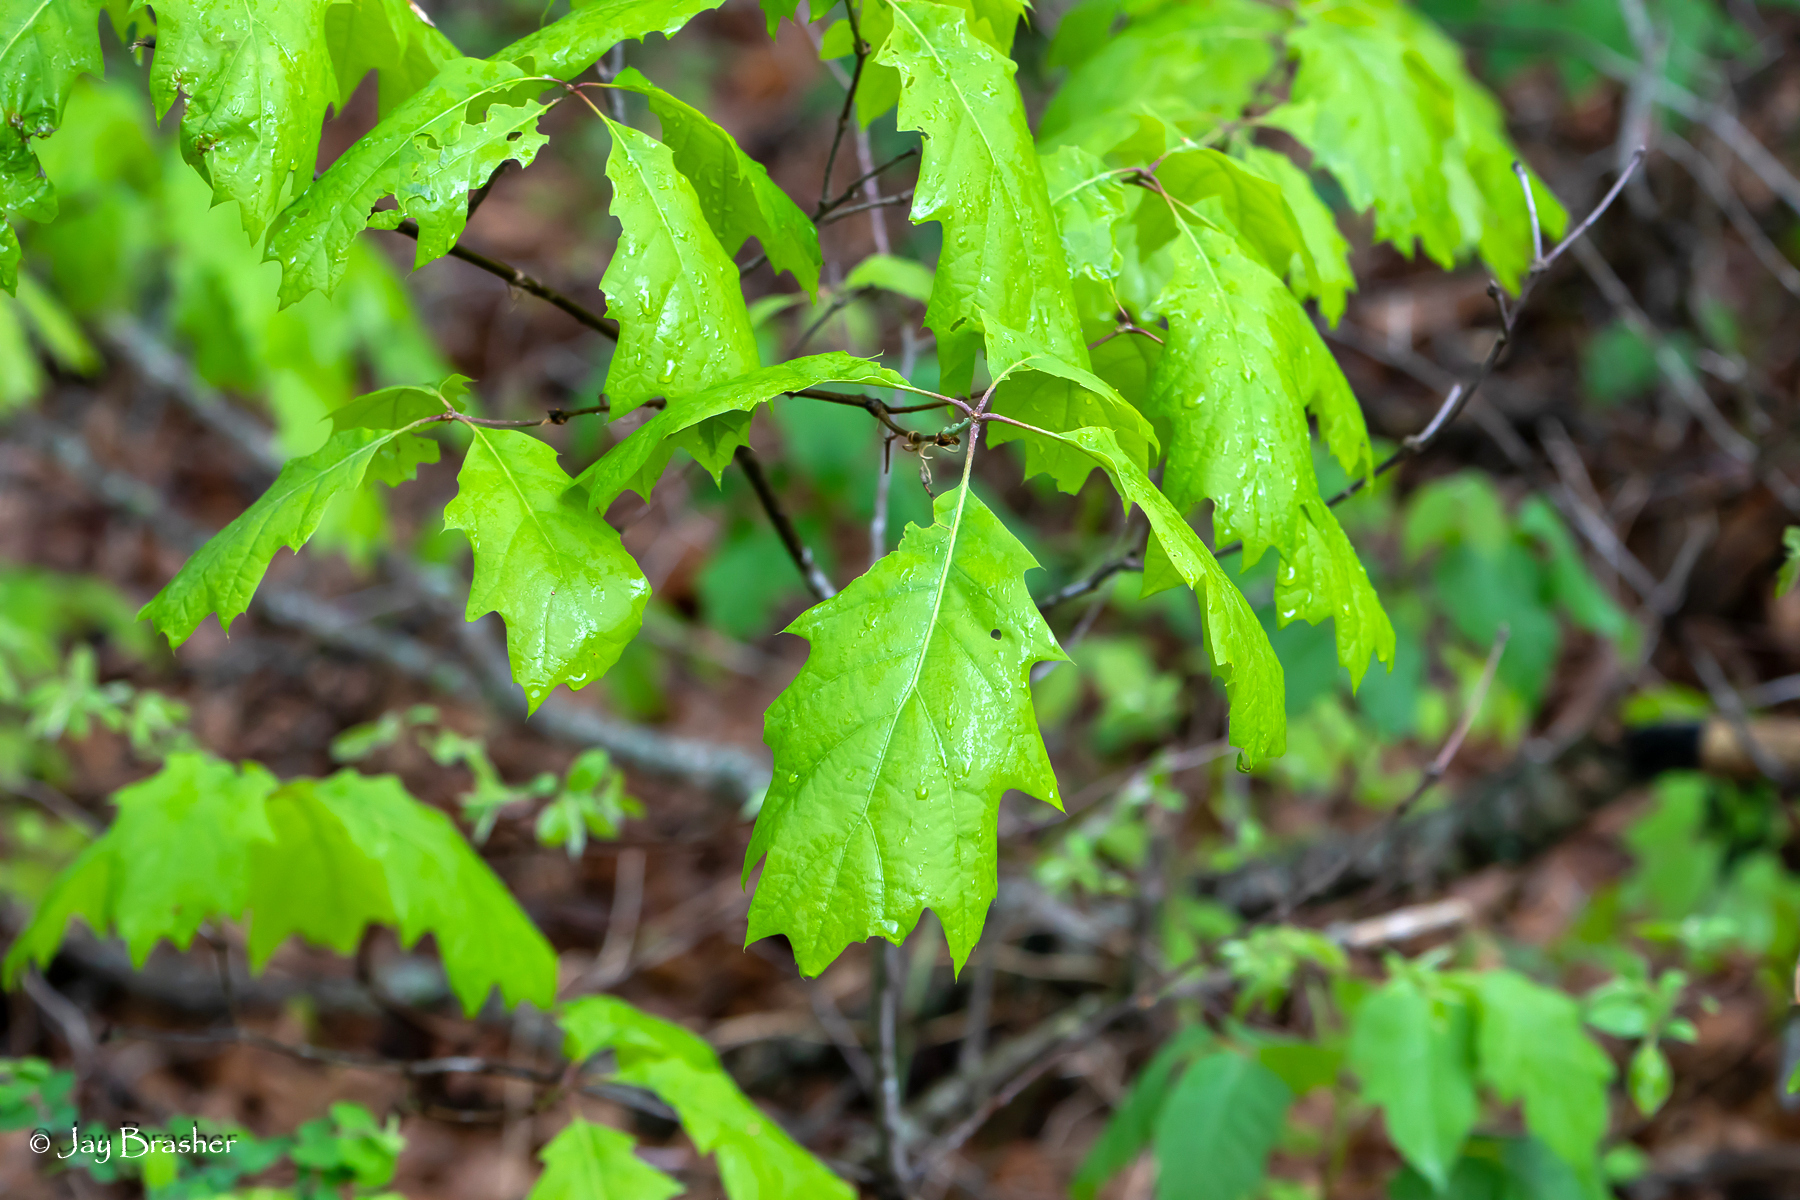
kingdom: Plantae
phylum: Tracheophyta
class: Magnoliopsida
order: Fagales
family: Fagaceae
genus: Quercus
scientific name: Quercus rubra
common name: Red oak
